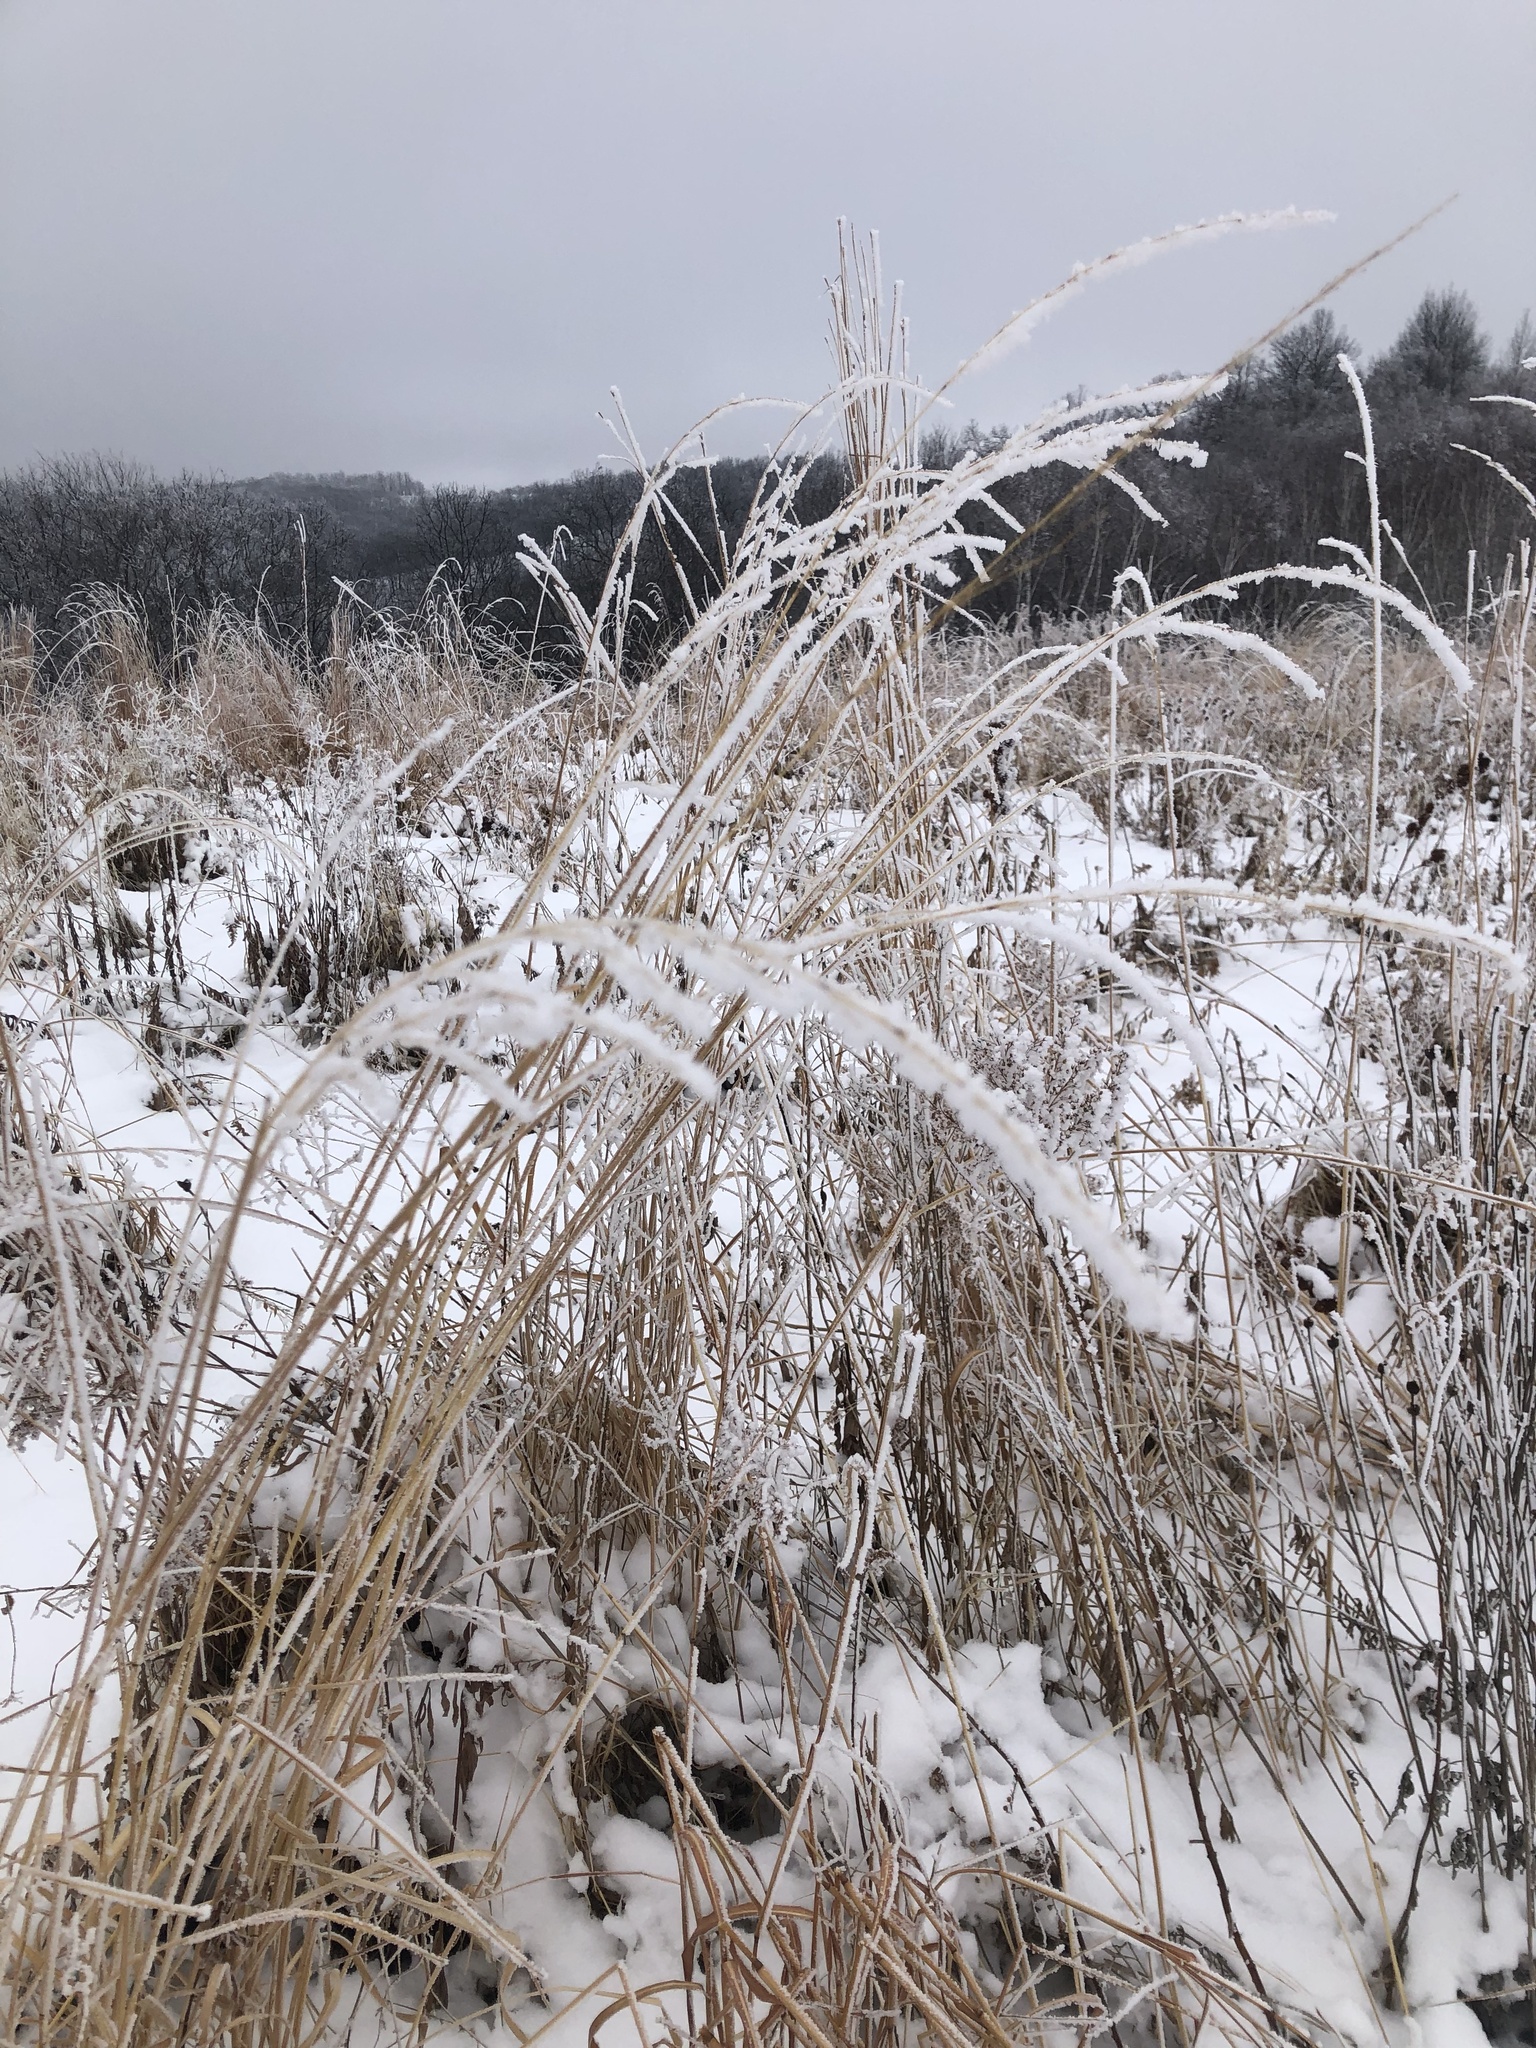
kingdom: Plantae
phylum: Tracheophyta
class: Liliopsida
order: Poales
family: Poaceae
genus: Andropogon
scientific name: Andropogon gerardi
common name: Big bluestem
